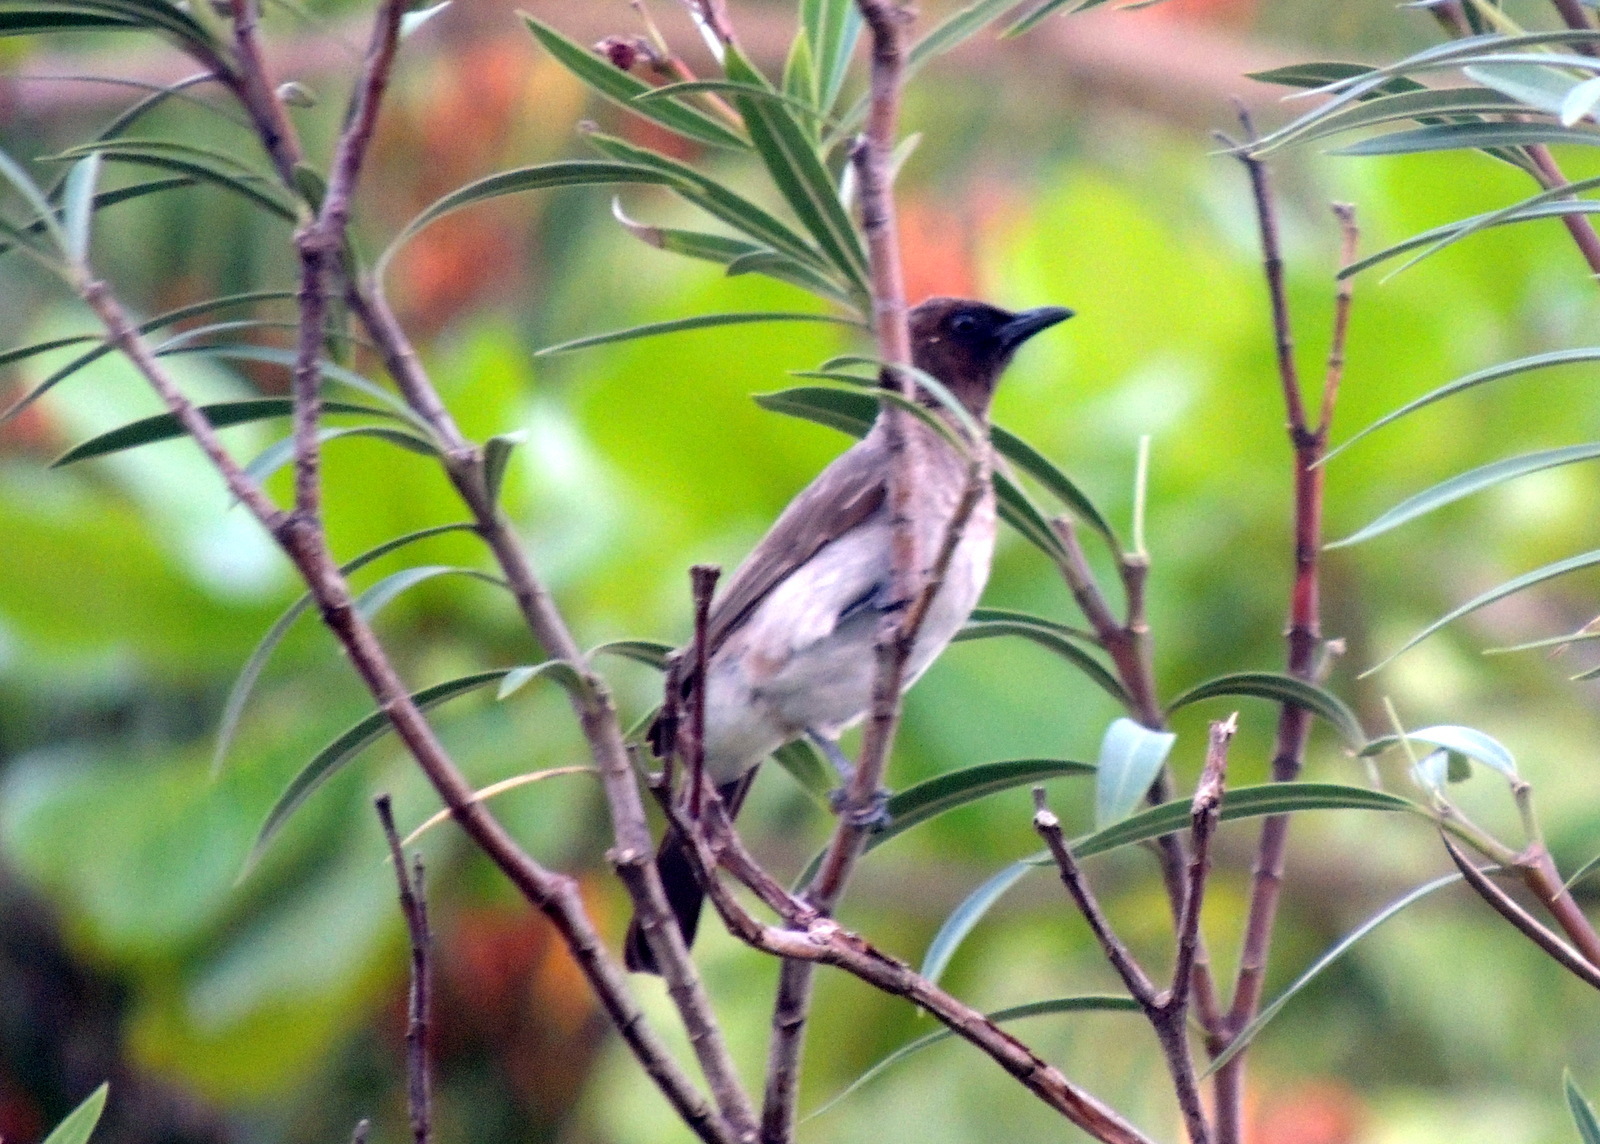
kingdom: Animalia
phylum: Chordata
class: Aves
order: Passeriformes
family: Pycnonotidae
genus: Pycnonotus
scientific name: Pycnonotus barbatus
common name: Common bulbul
